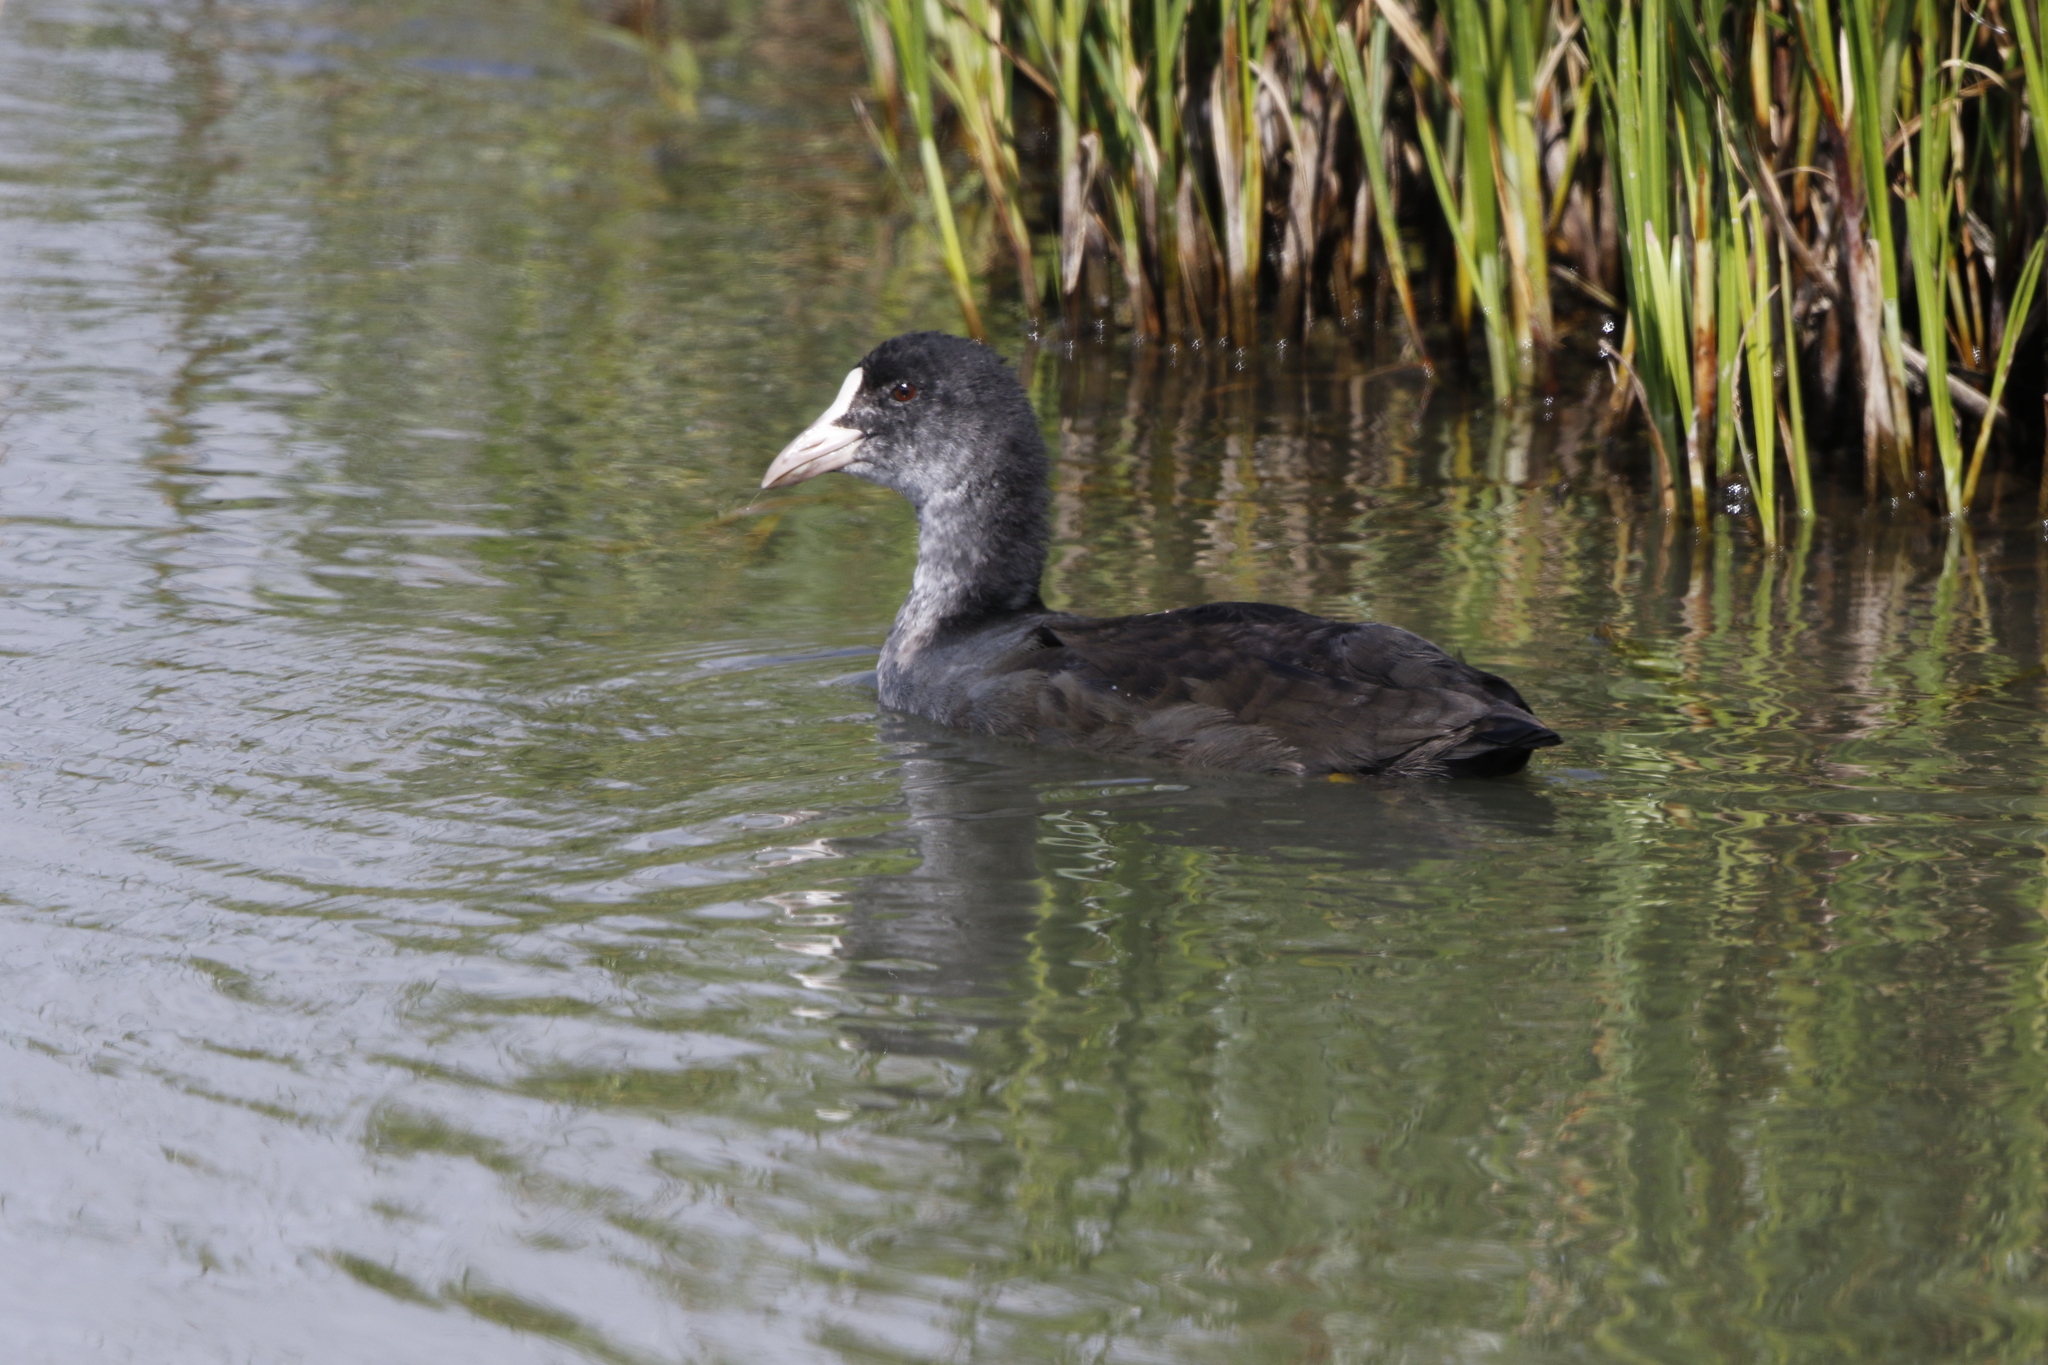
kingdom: Animalia
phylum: Chordata
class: Aves
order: Gruiformes
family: Rallidae
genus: Fulica
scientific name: Fulica atra
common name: Eurasian coot
